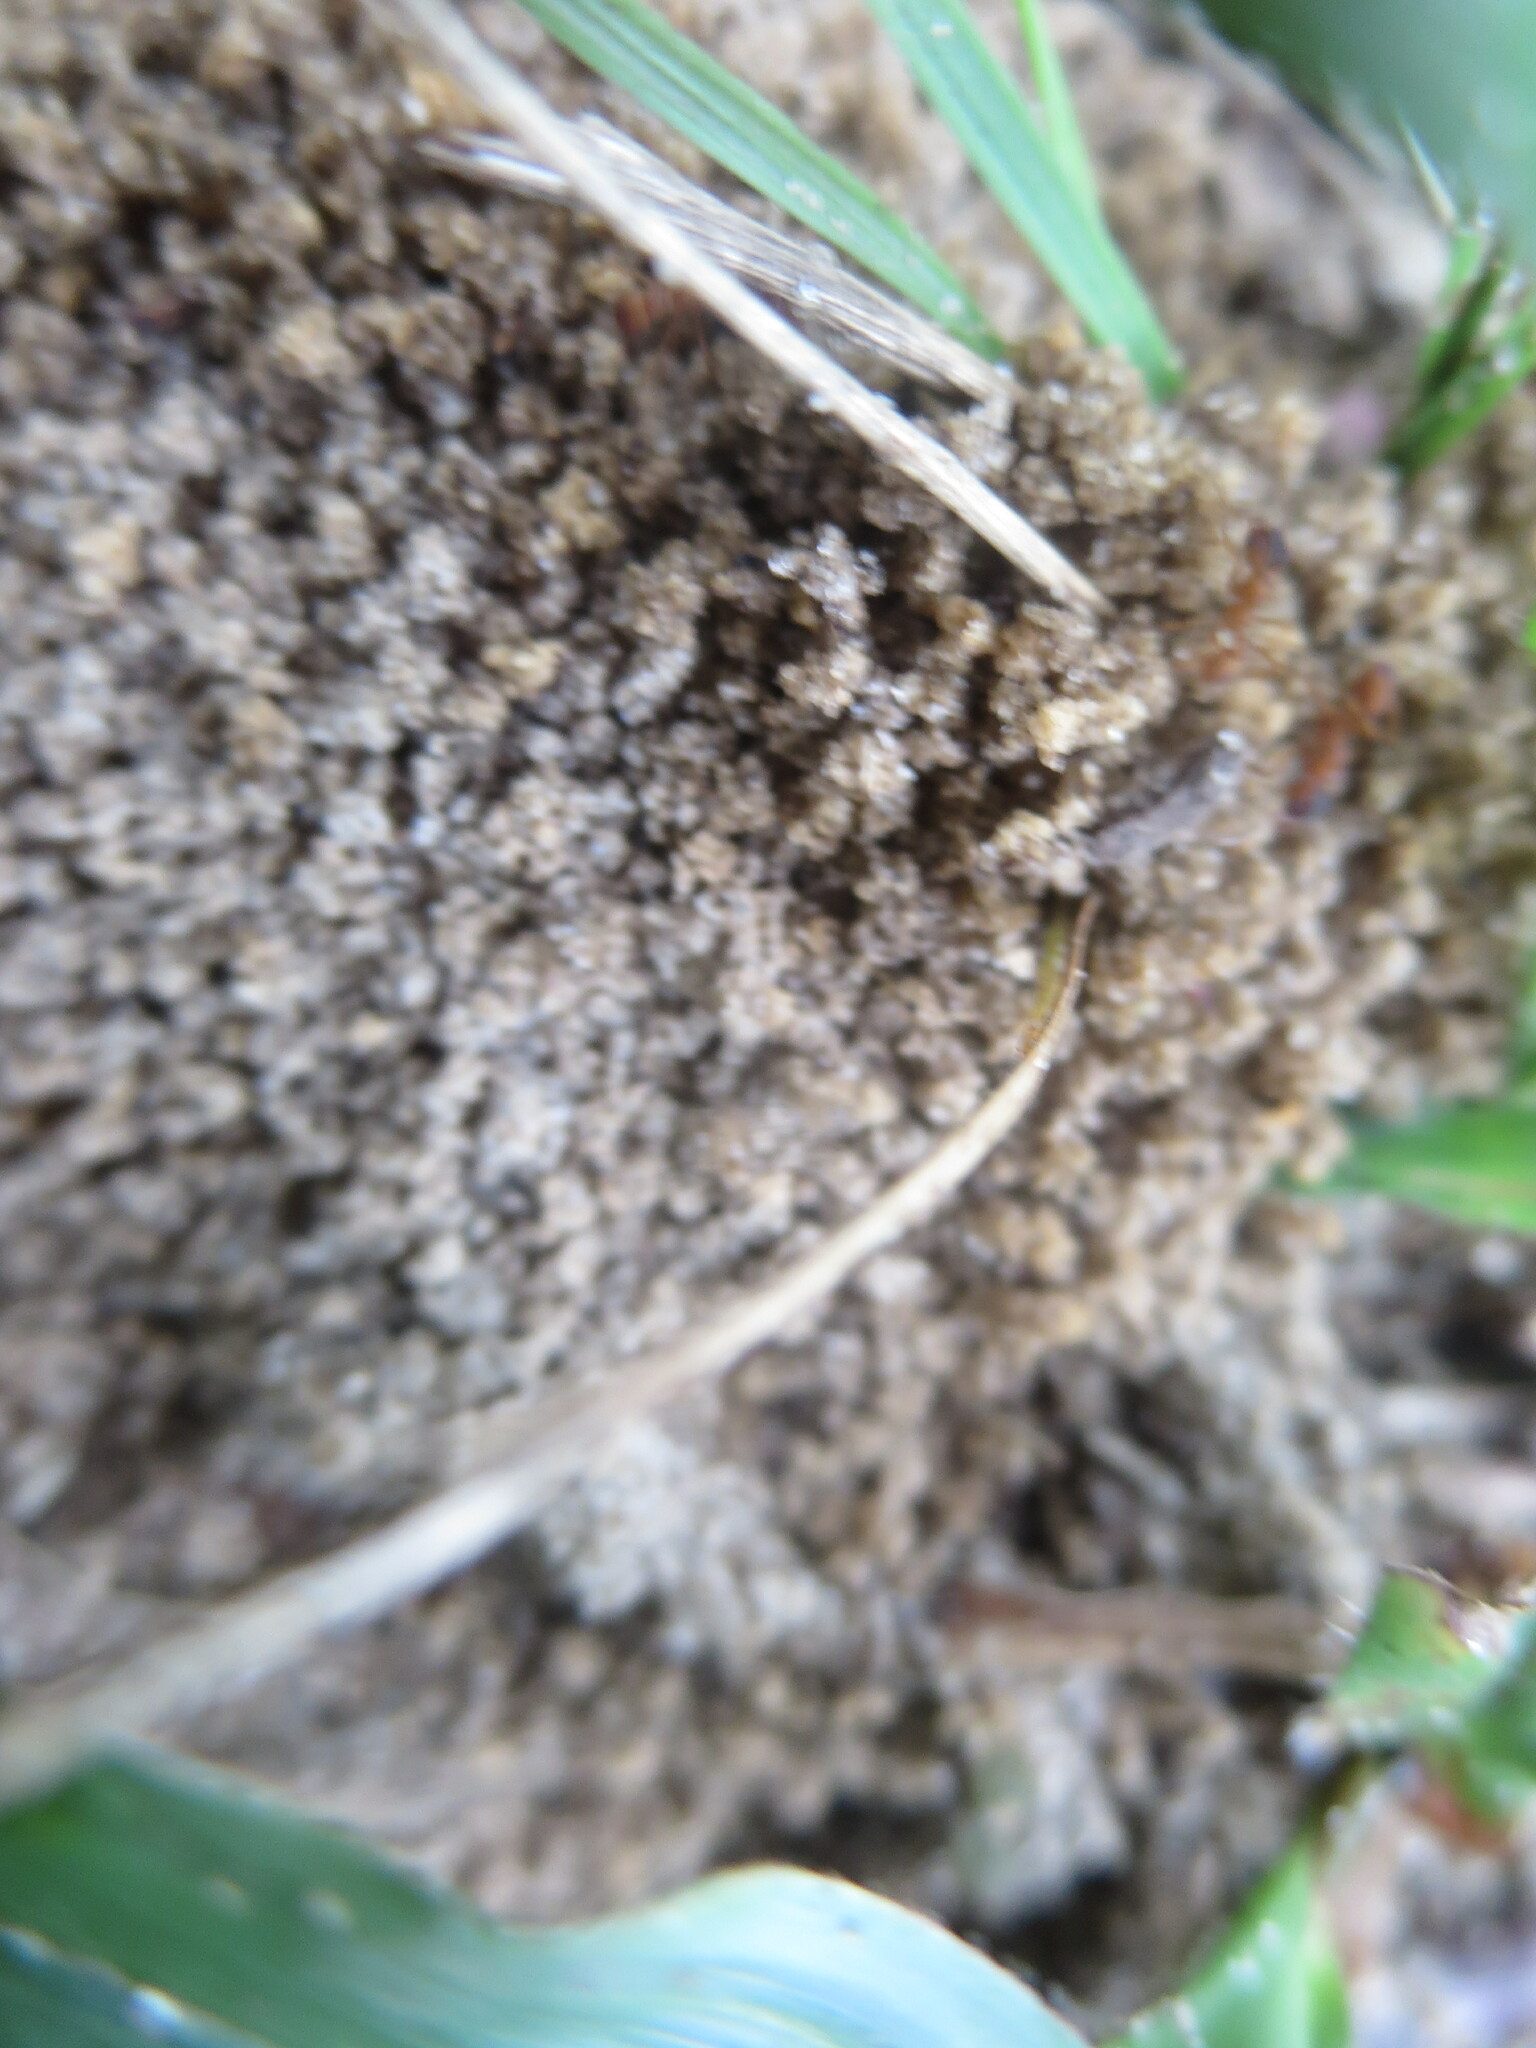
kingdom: Animalia
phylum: Arthropoda
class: Insecta
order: Hymenoptera
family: Formicidae
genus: Trachymyrmex
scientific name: Trachymyrmex septentrionalis
